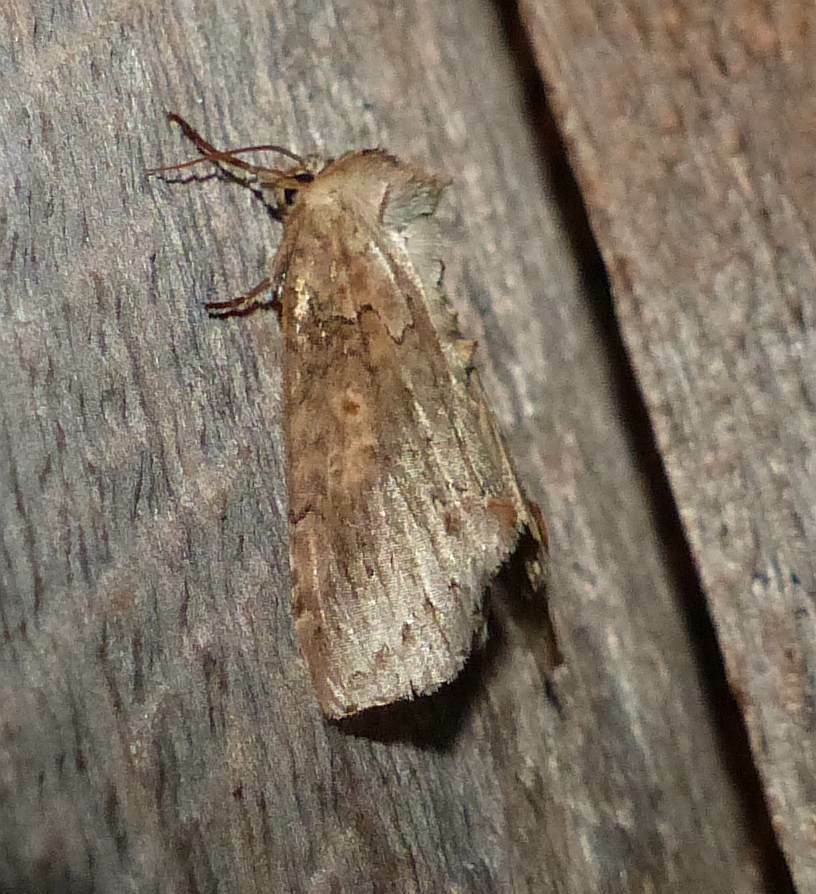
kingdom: Animalia
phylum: Arthropoda
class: Insecta
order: Lepidoptera
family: Drepanidae
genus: Pseudothyatira
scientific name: Pseudothyatira cymatophoroides
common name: Tufted thyatirid moth
